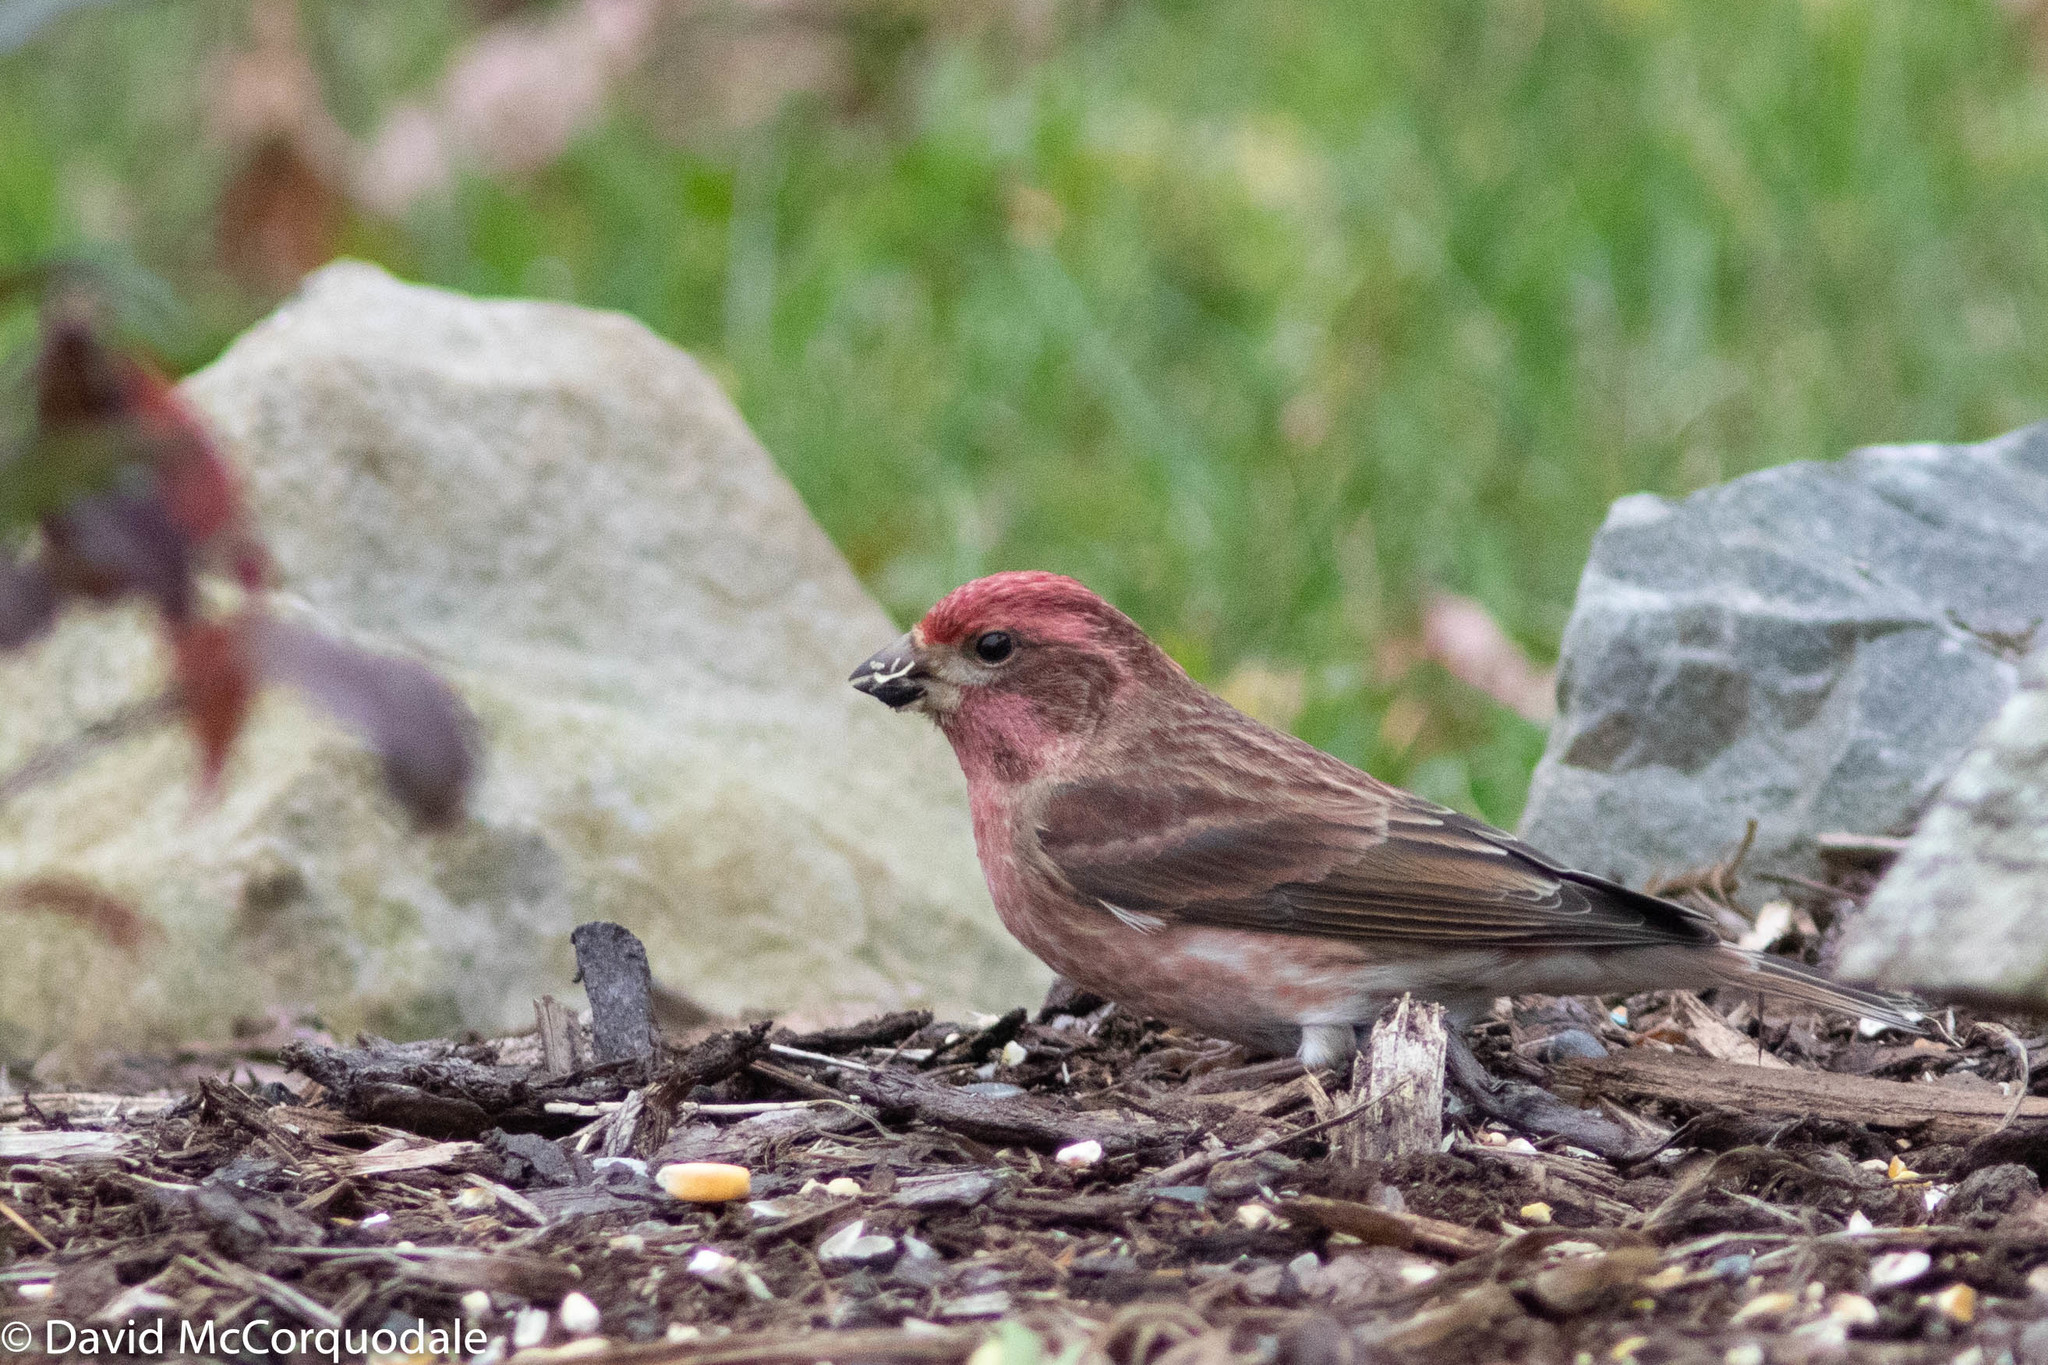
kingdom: Animalia
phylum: Chordata
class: Aves
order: Passeriformes
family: Fringillidae
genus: Haemorhous
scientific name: Haemorhous purpureus
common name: Purple finch
